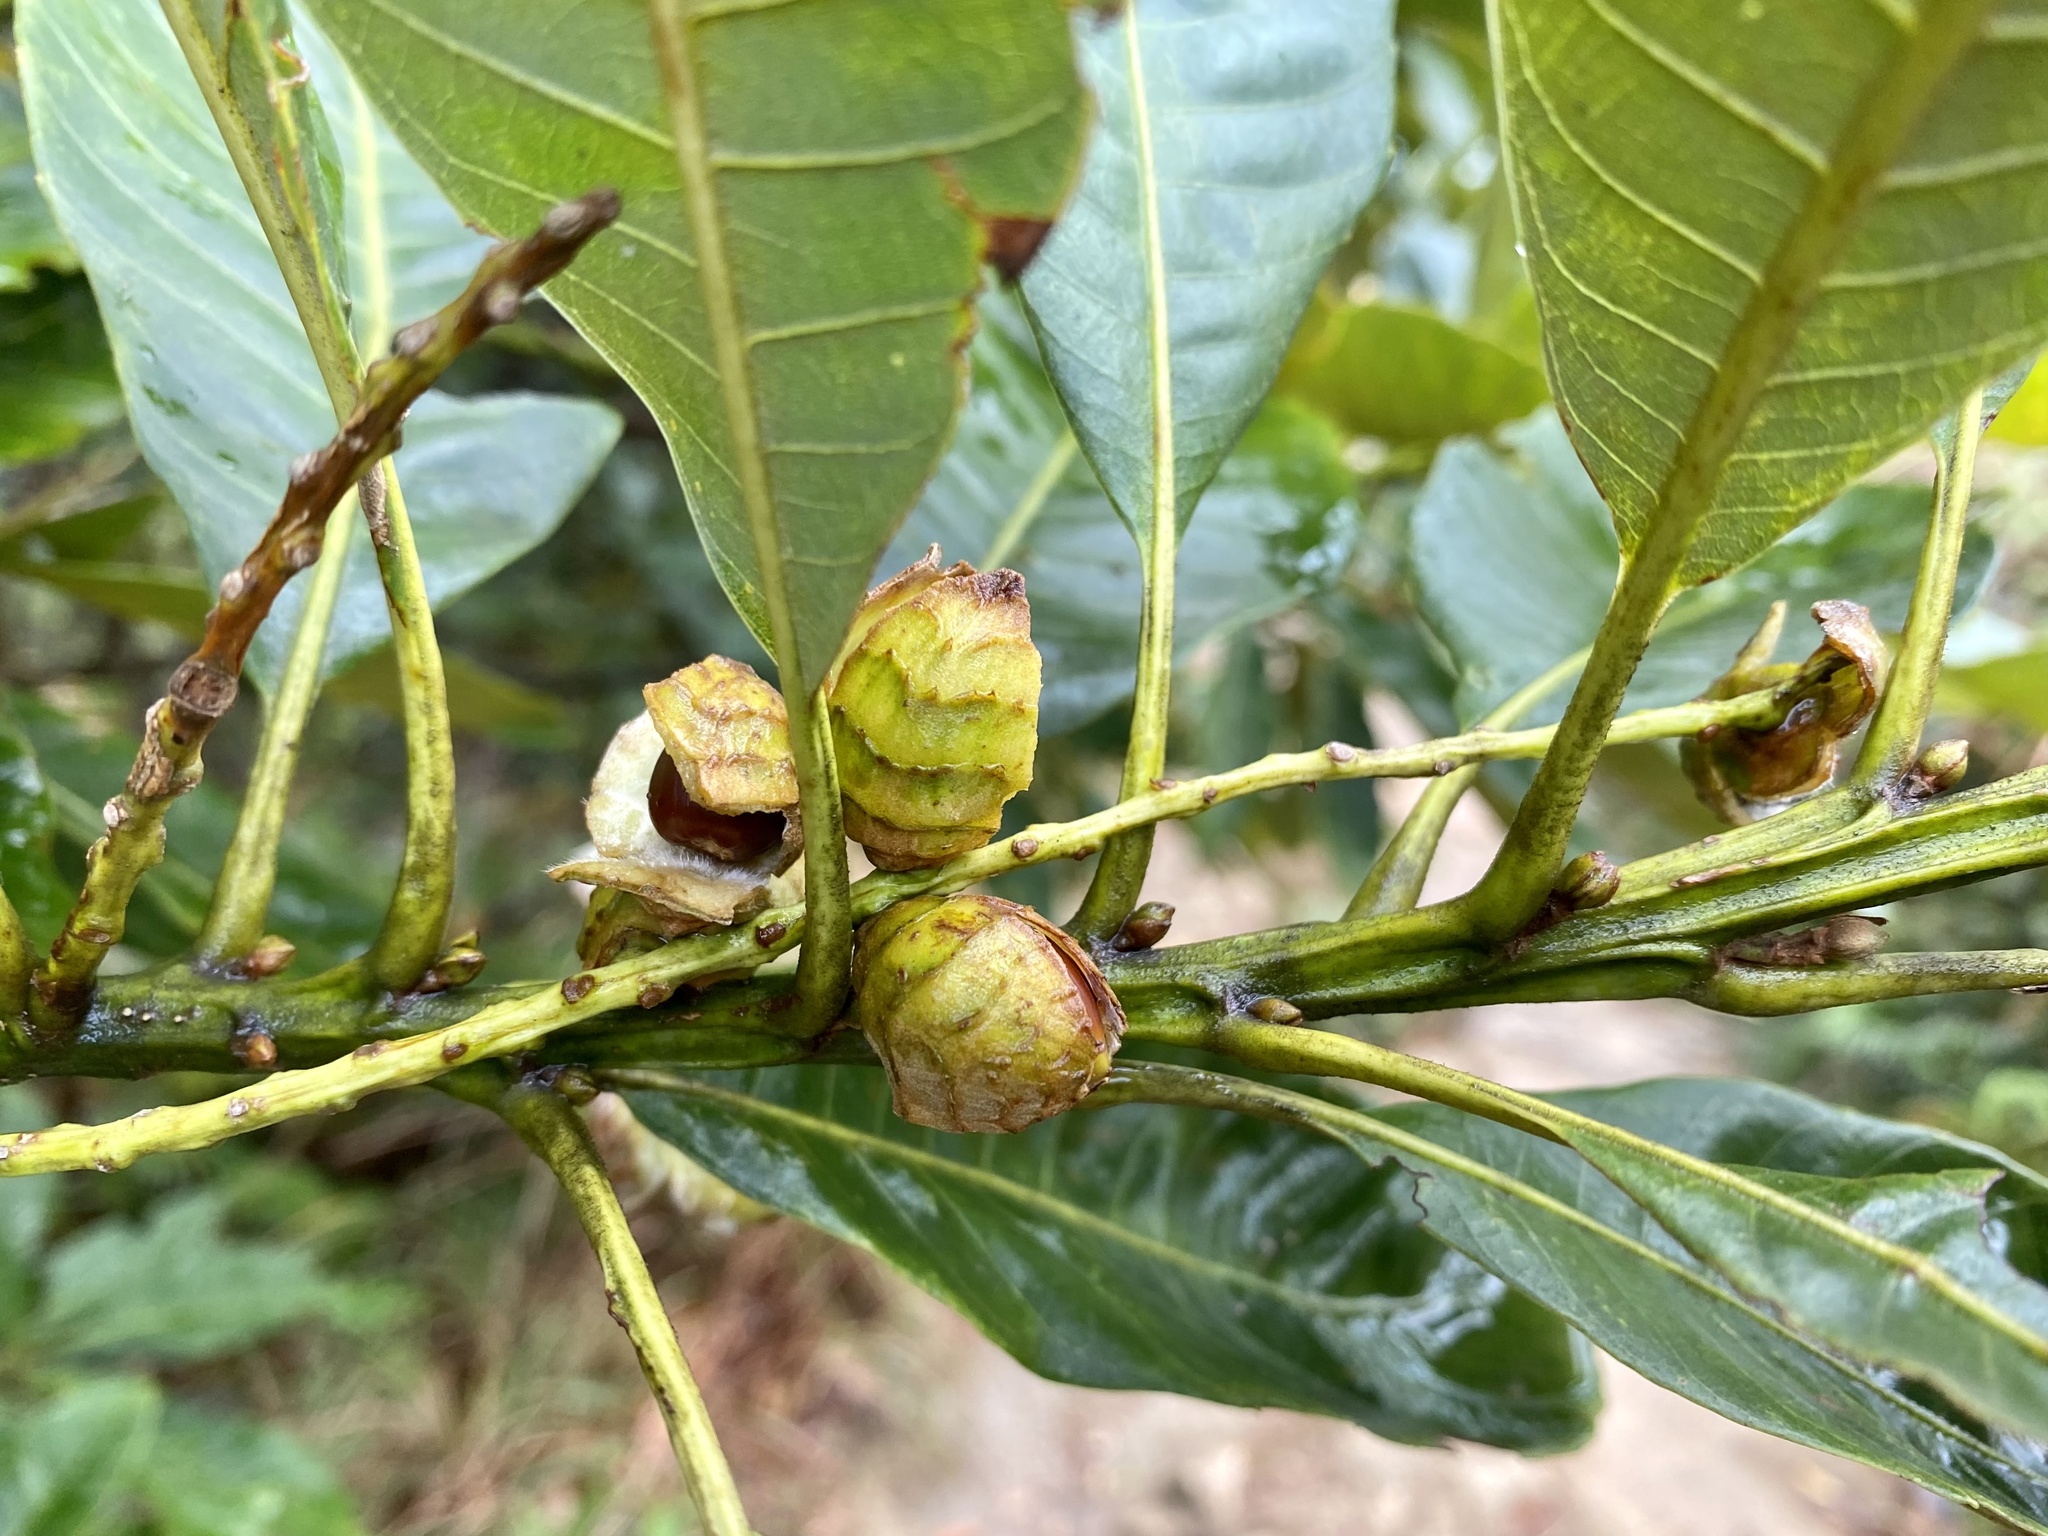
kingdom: Plantae
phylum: Tracheophyta
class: Magnoliopsida
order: Fagales
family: Fagaceae
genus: Castanopsis
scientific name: Castanopsis fissa
